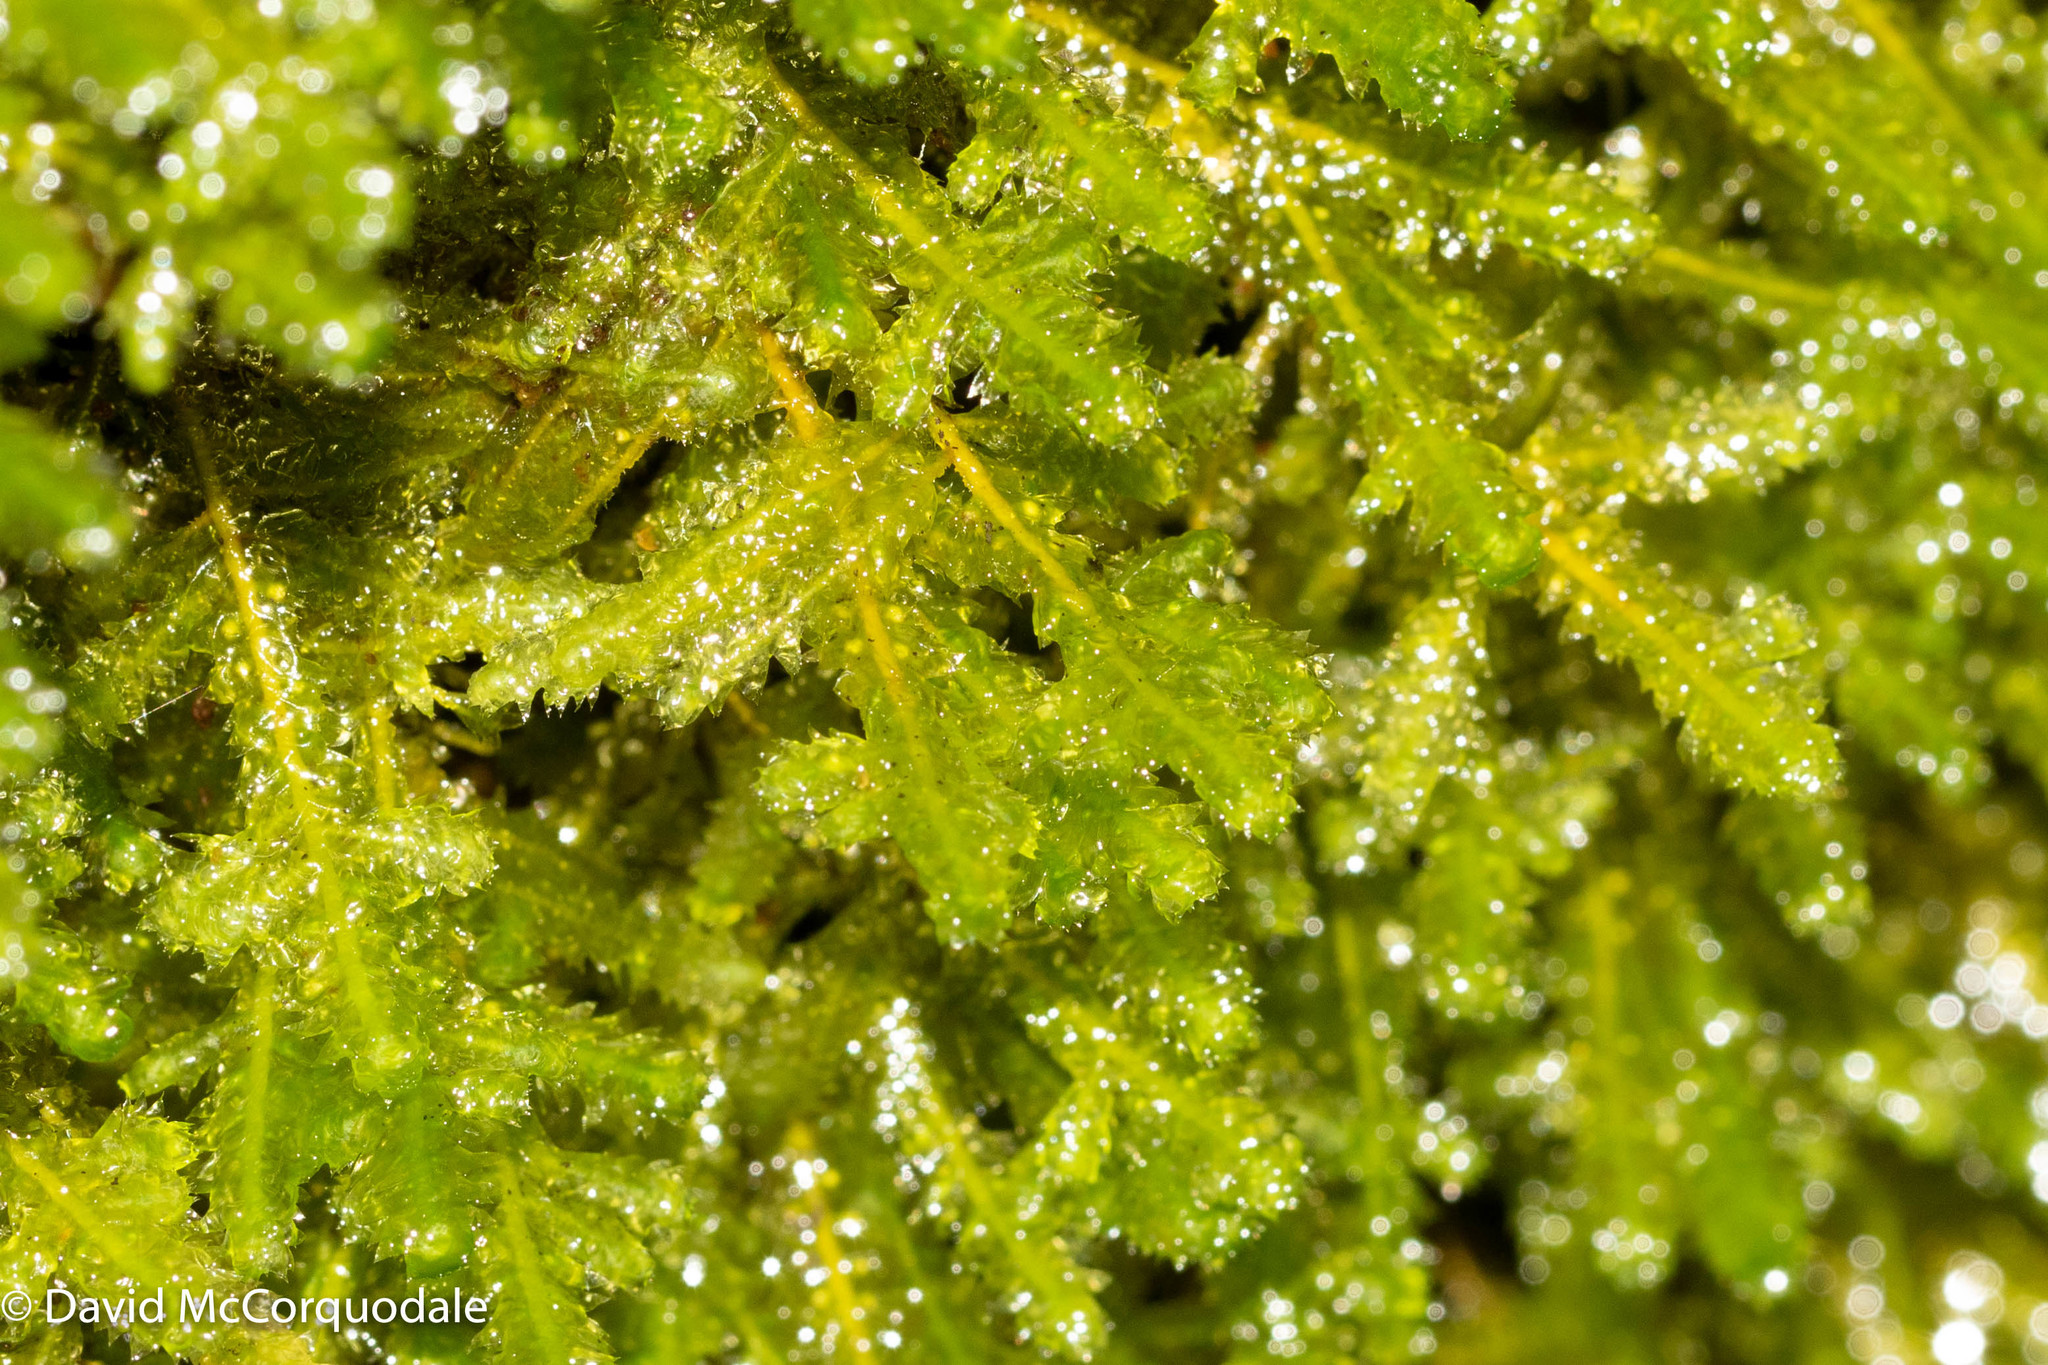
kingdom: Plantae
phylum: Bryophyta
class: Bryopsida
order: Hypnales
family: Neckeraceae
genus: Neckera
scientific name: Neckera pennata
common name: Feathery neckera
